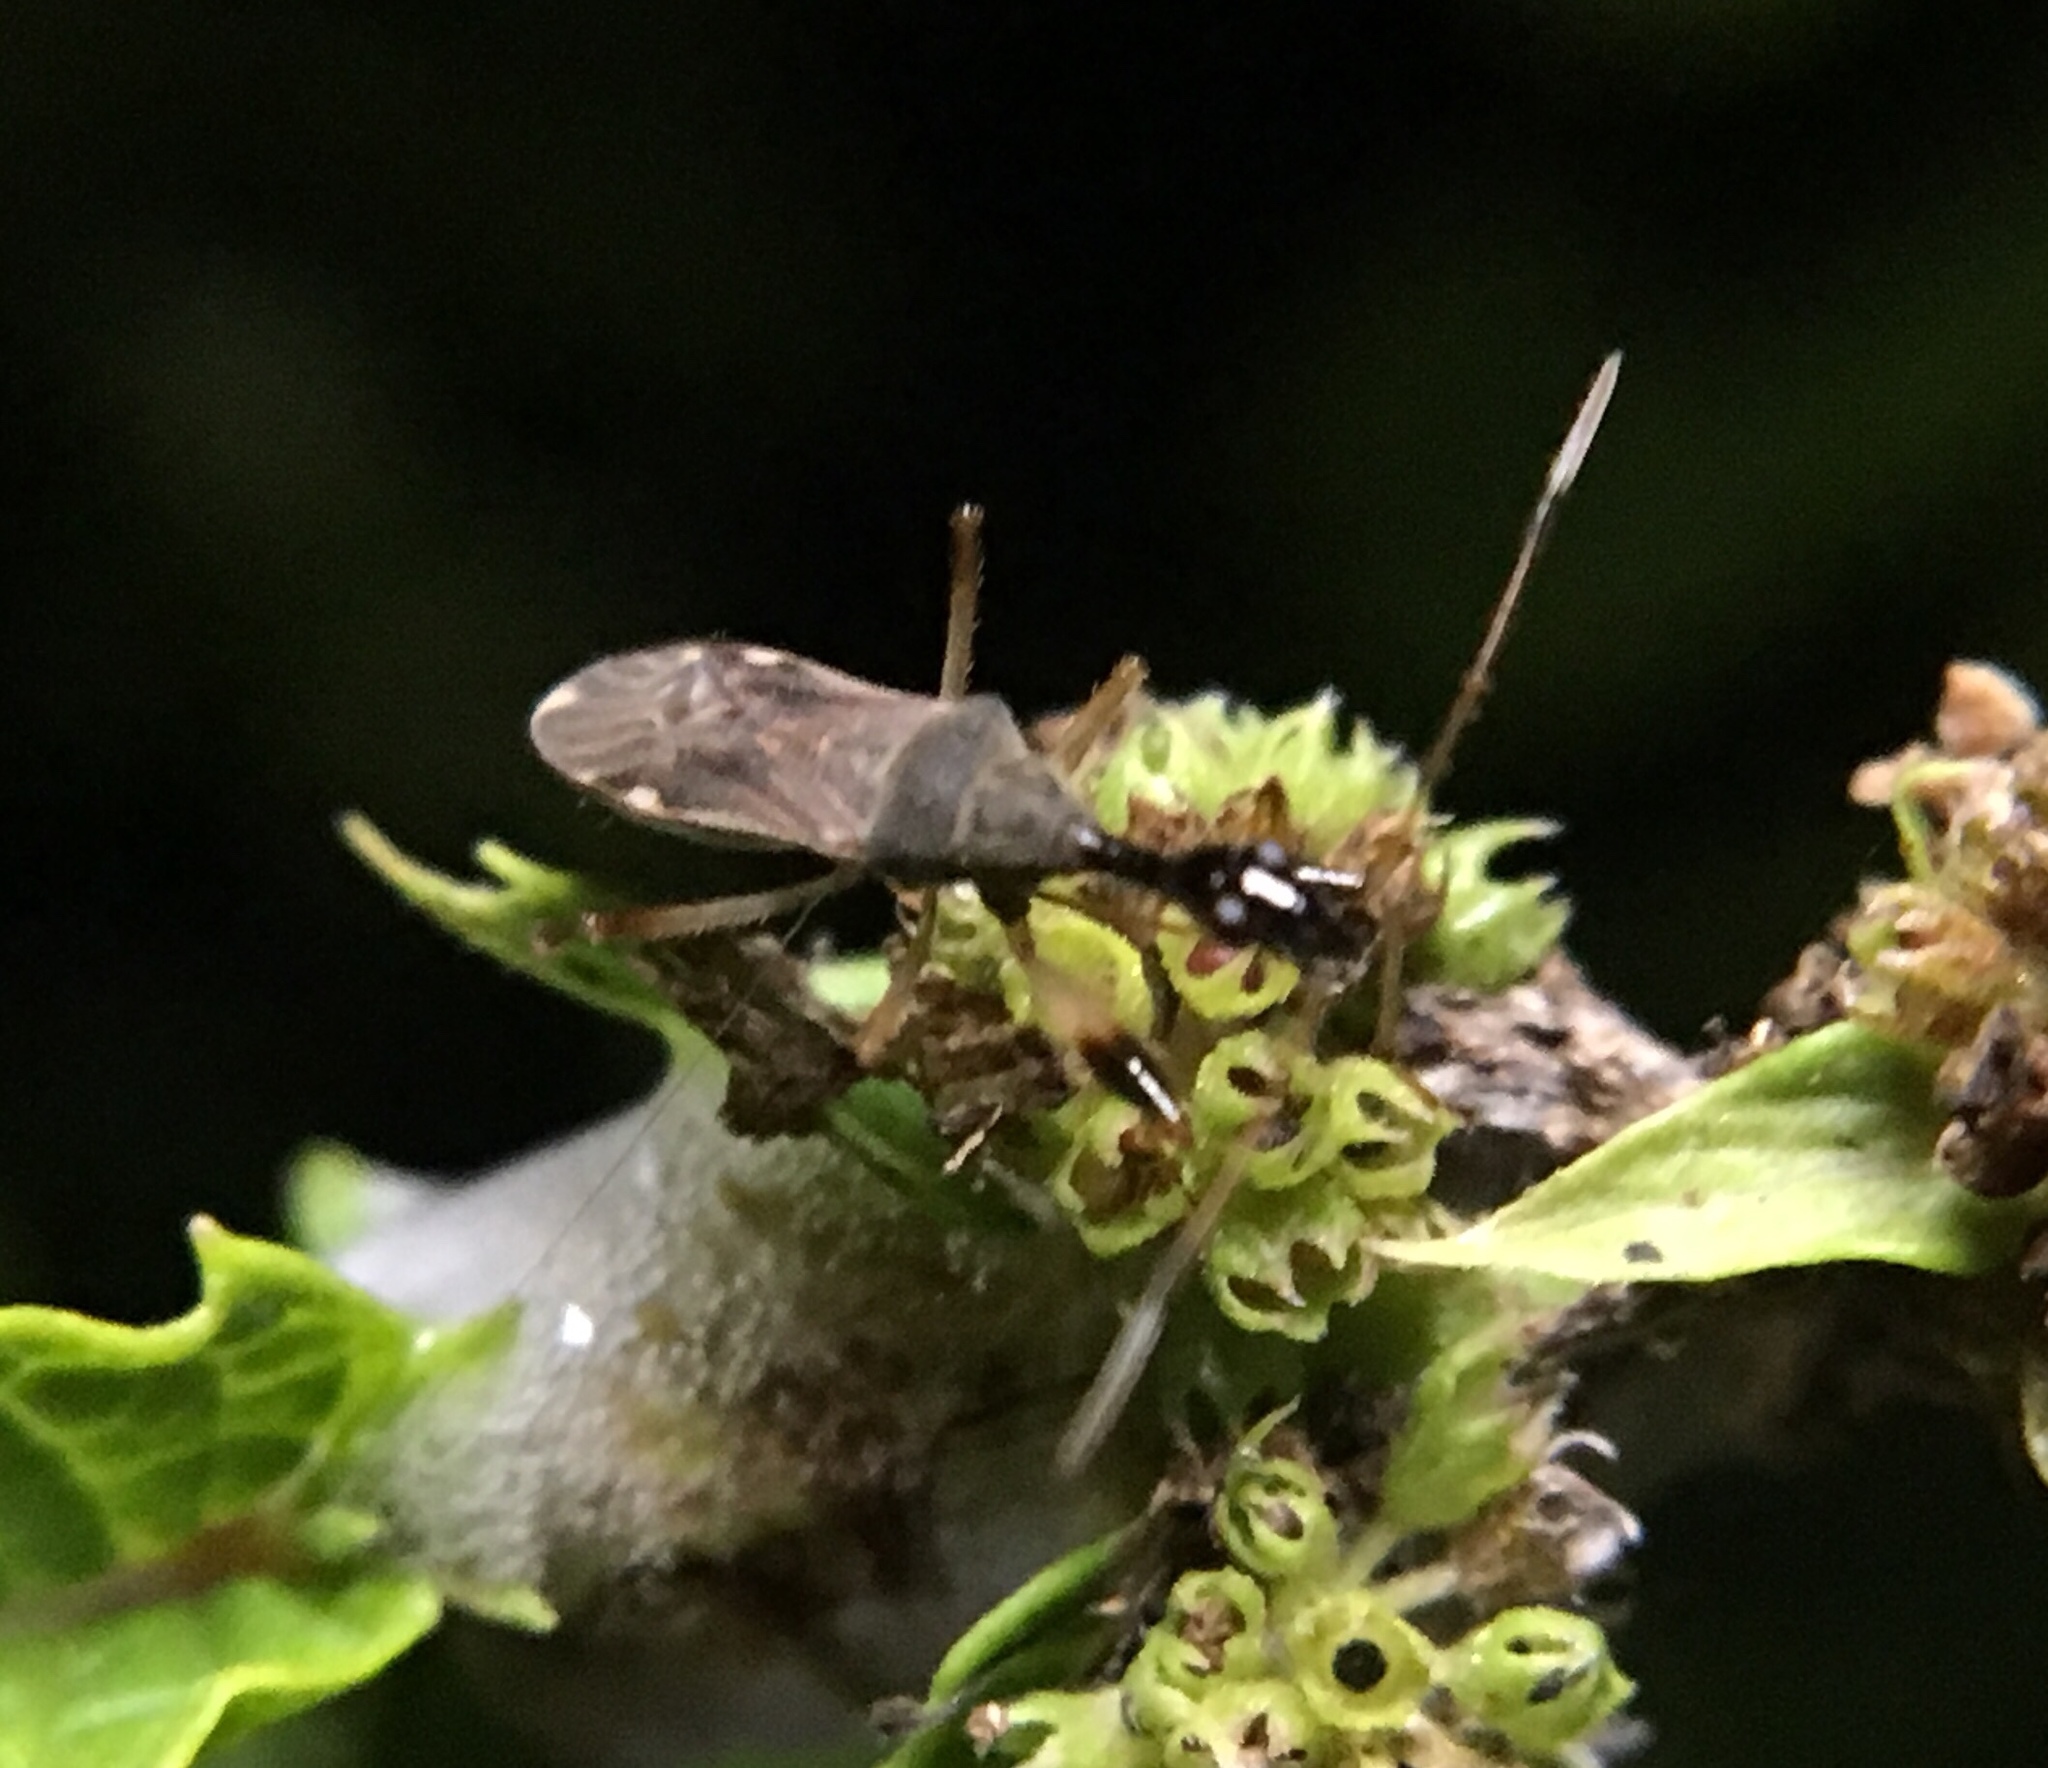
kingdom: Animalia
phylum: Arthropoda
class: Insecta
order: Hemiptera
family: Rhyparochromidae
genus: Myodocha
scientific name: Myodocha serripes
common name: Long-necked seed bug
